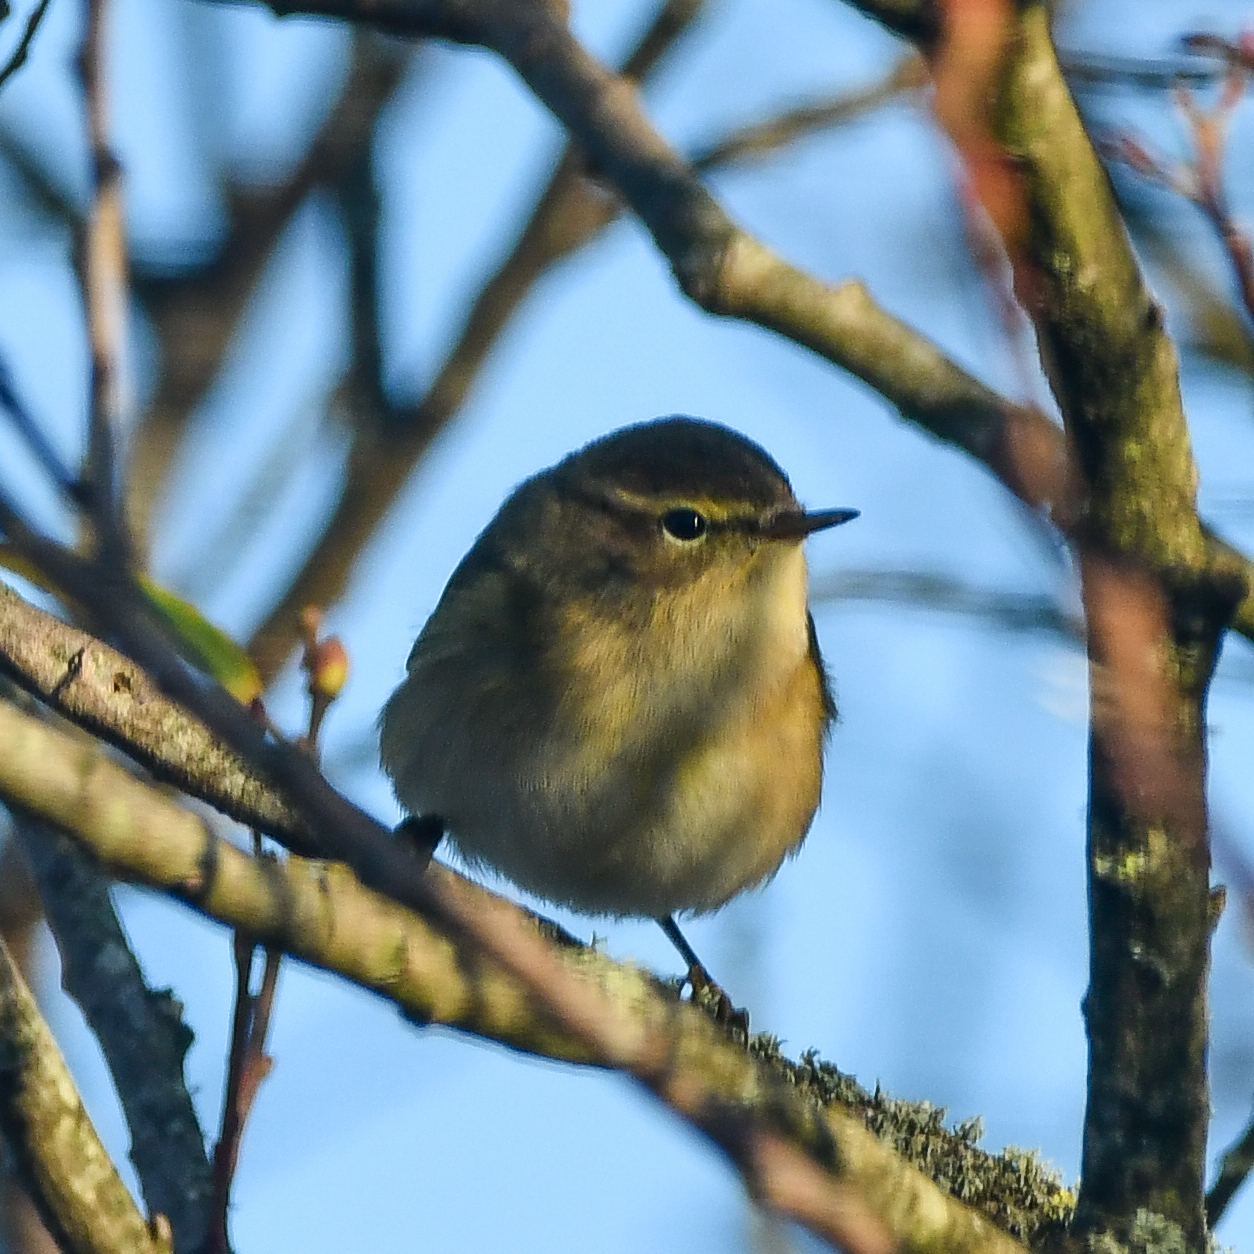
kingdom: Animalia
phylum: Chordata
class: Aves
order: Passeriformes
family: Phylloscopidae
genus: Phylloscopus
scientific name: Phylloscopus collybita
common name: Common chiffchaff
